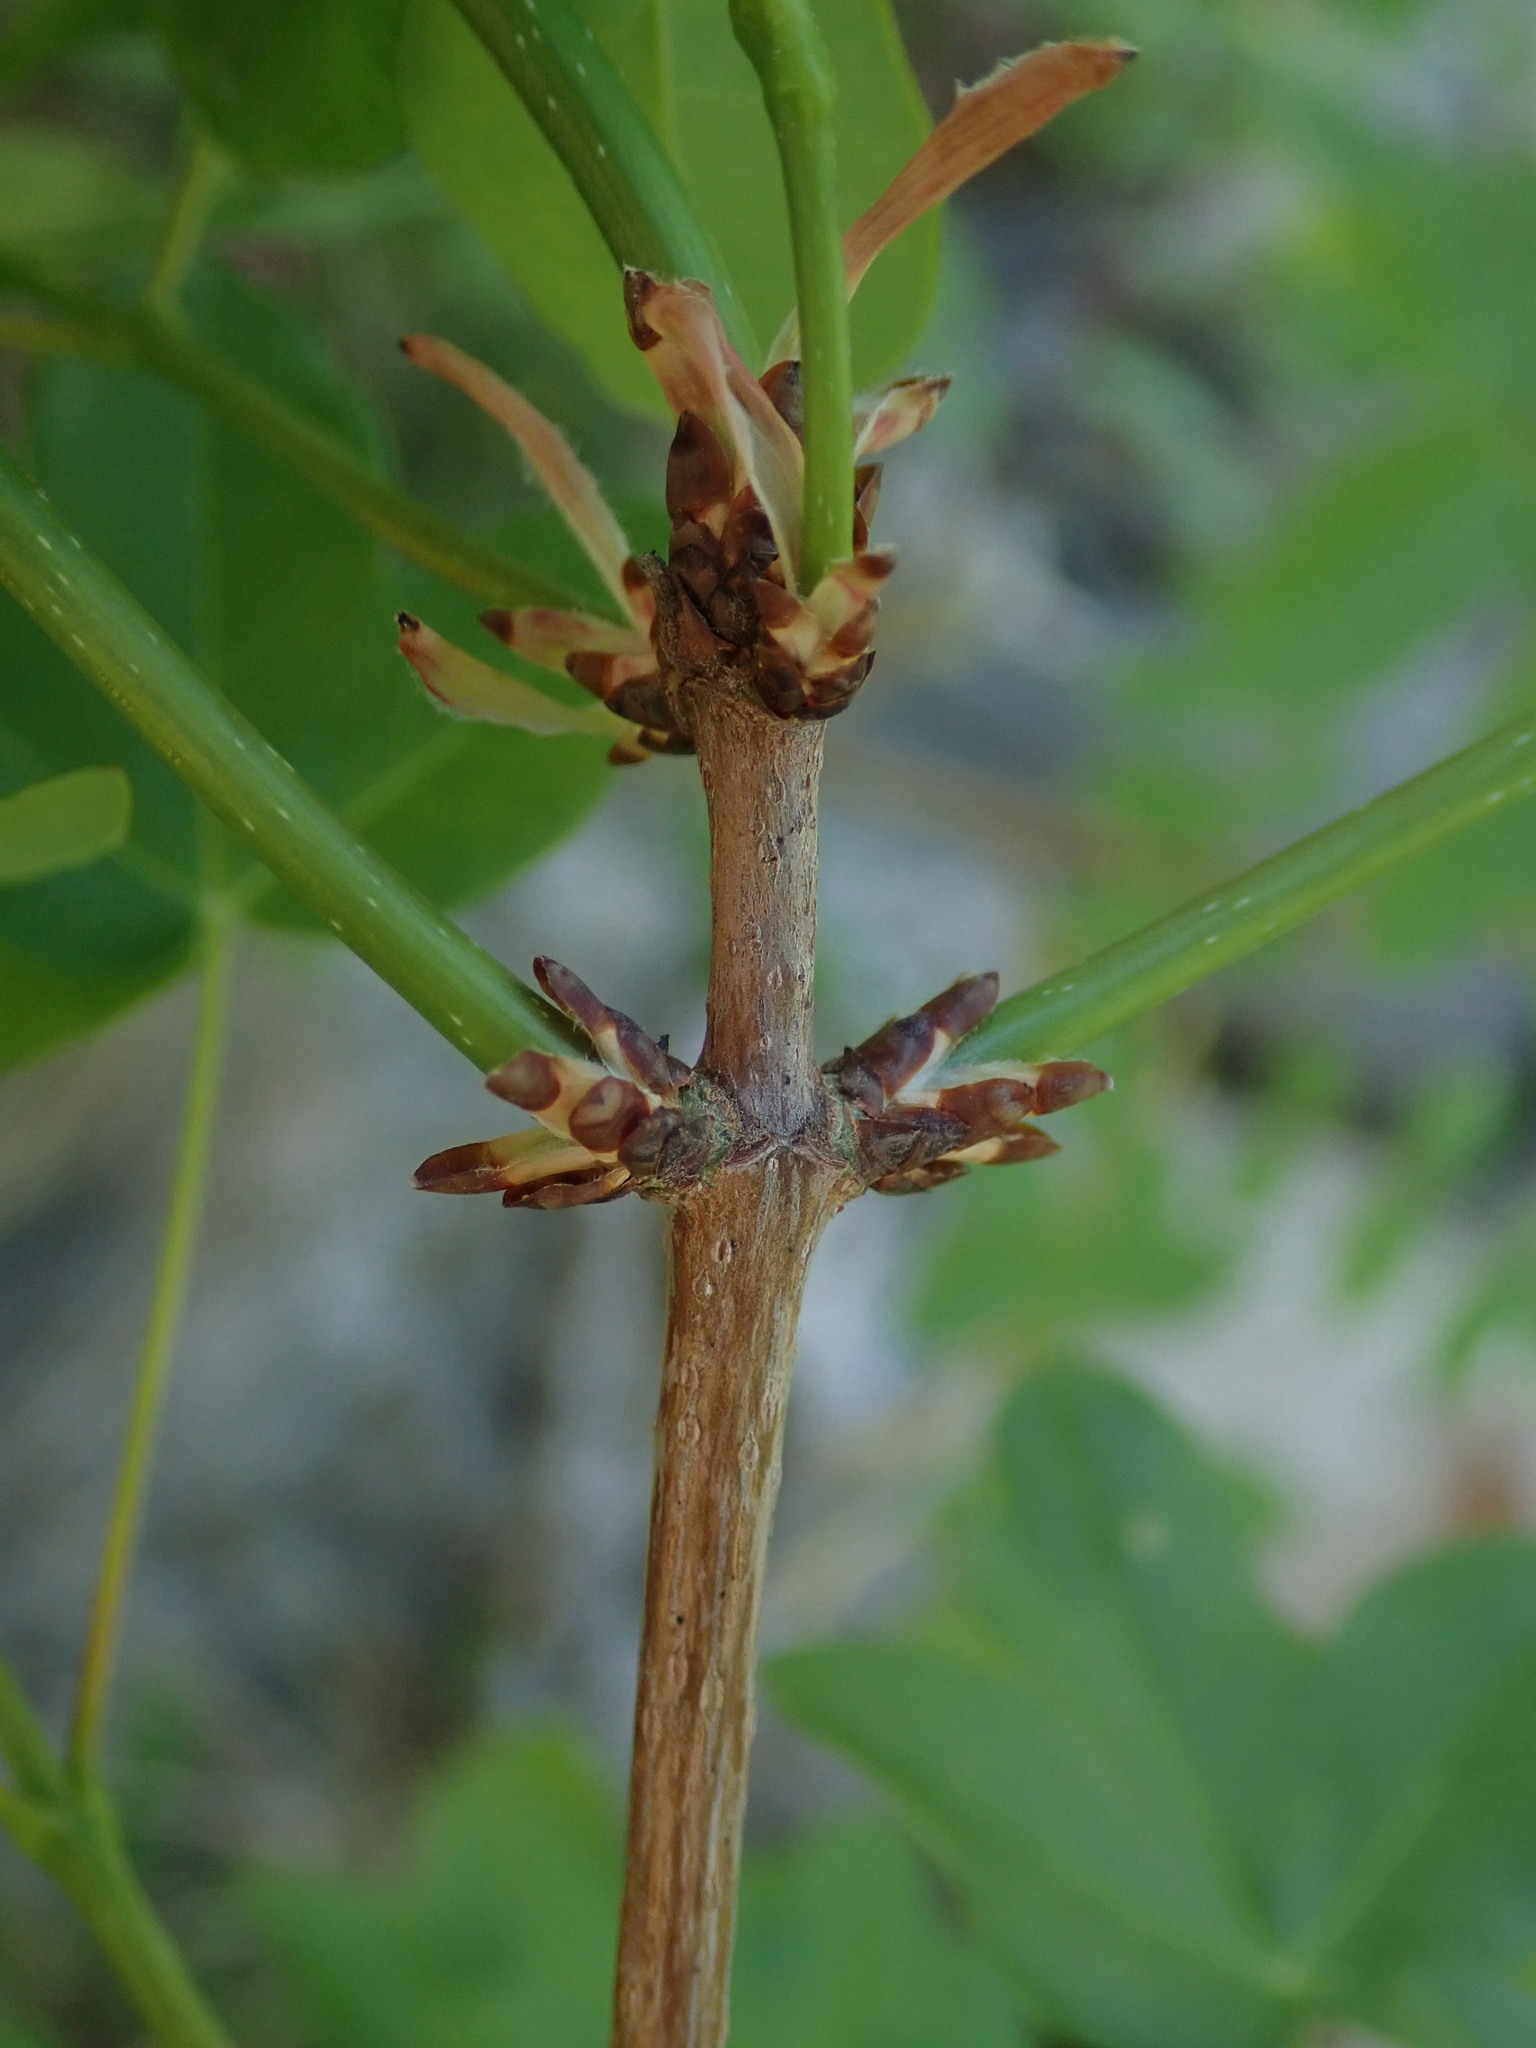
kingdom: Plantae
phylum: Tracheophyta
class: Magnoliopsida
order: Sapindales
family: Sapindaceae
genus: Acer
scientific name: Acer monspessulanum
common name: Montpellier maple
